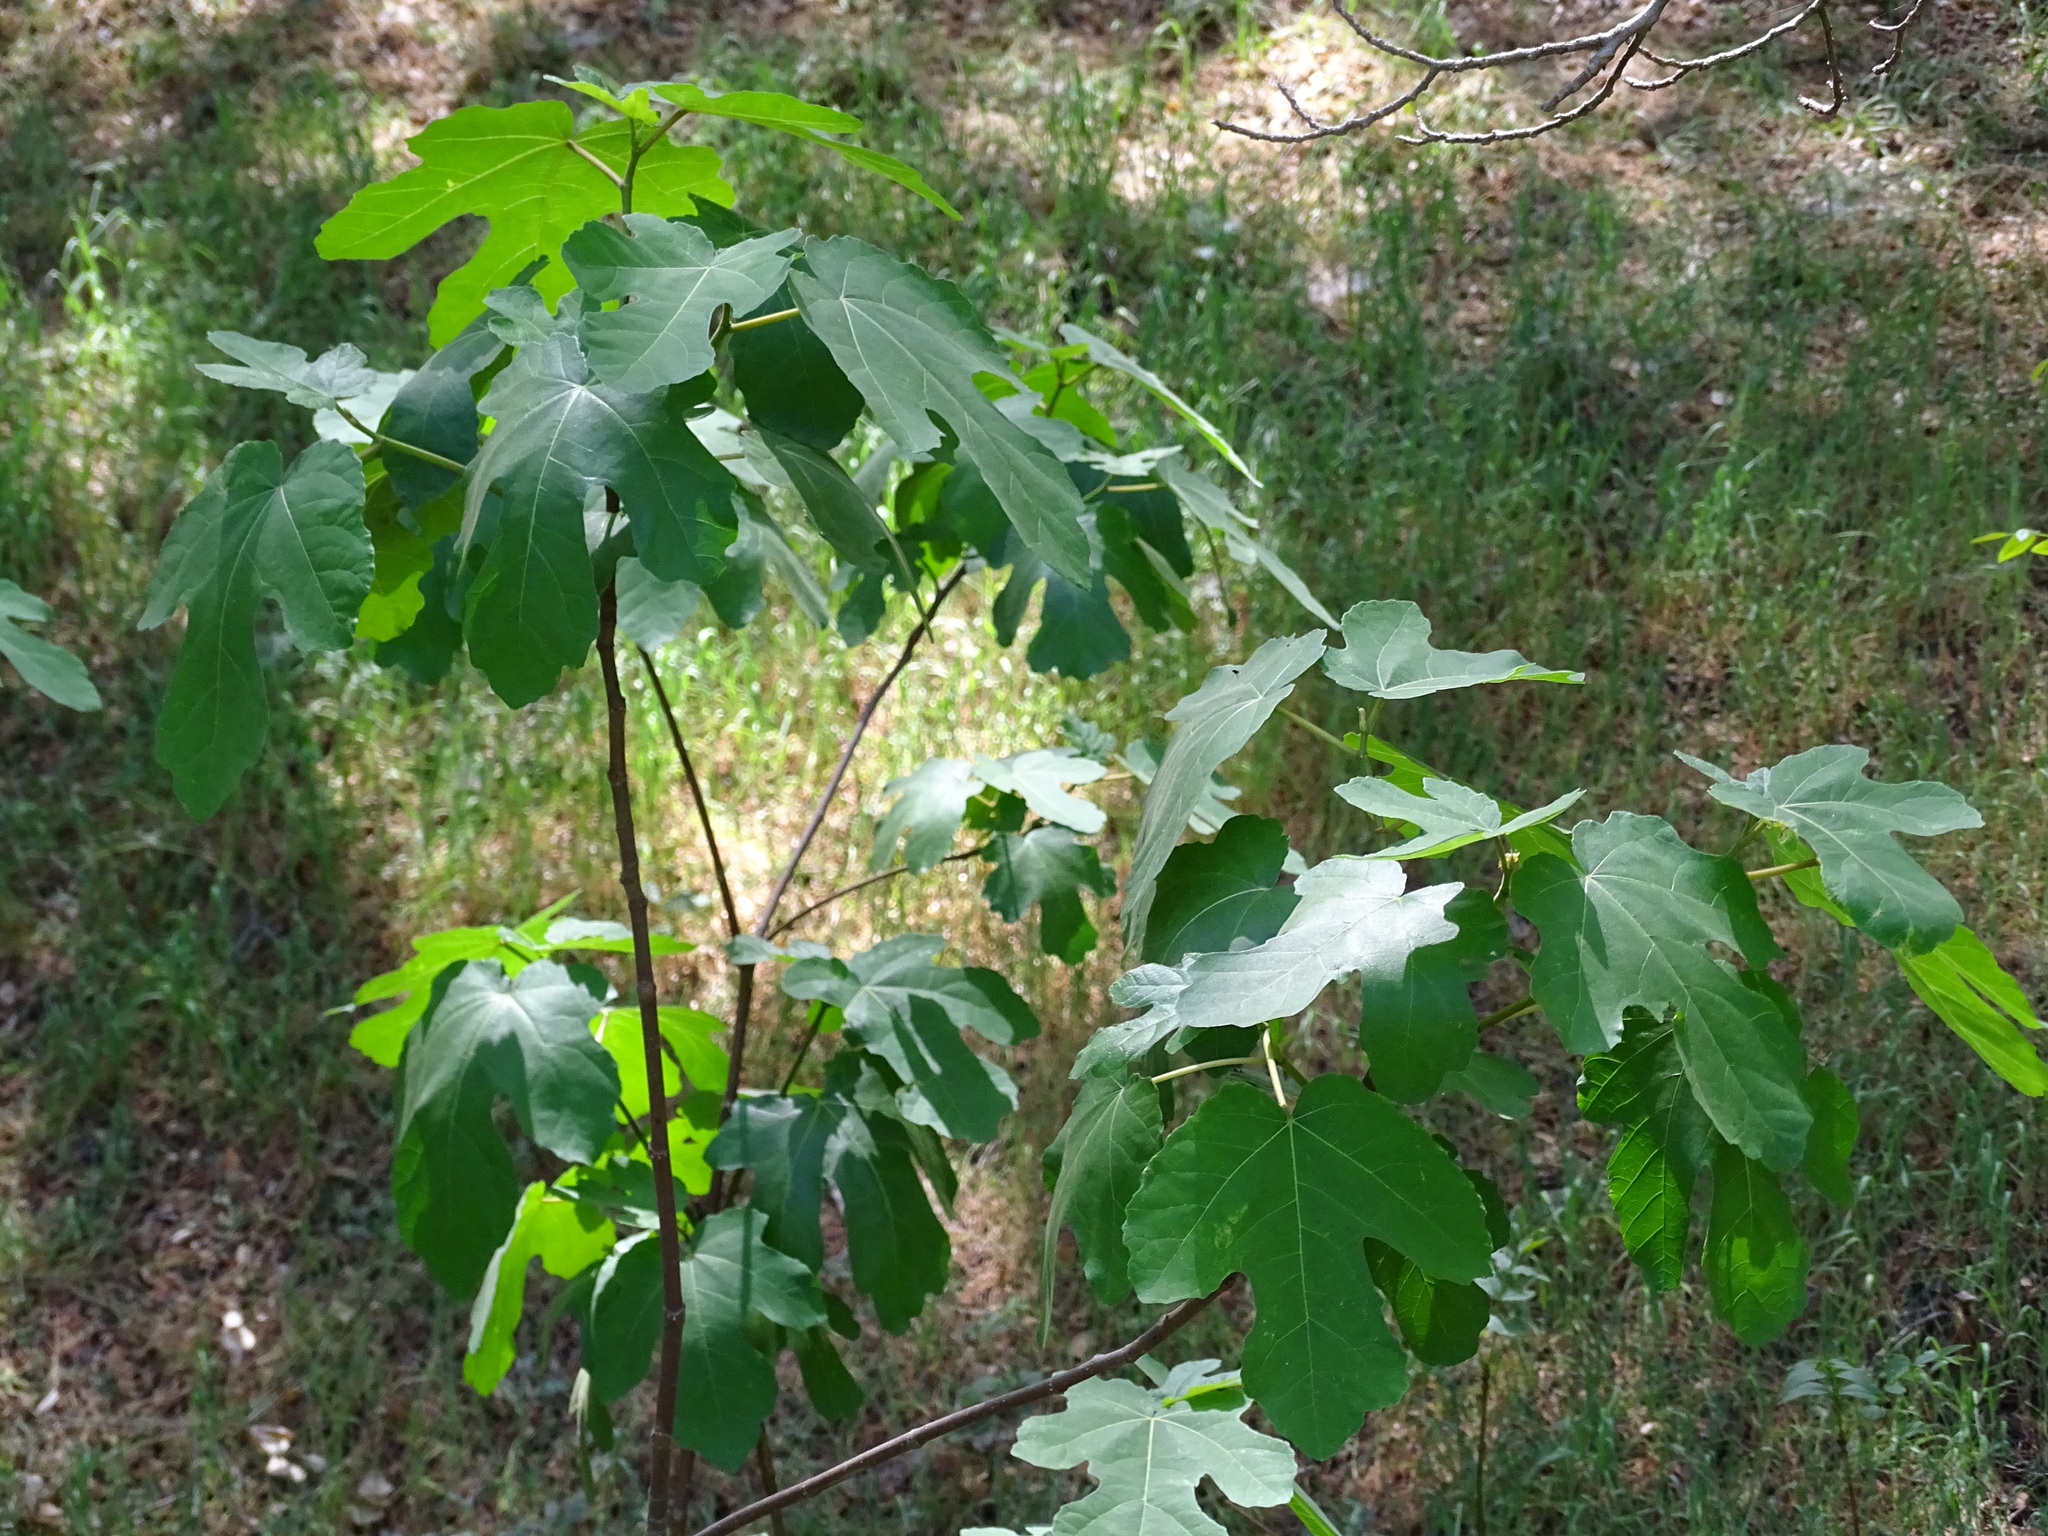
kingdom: Plantae
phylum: Tracheophyta
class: Magnoliopsida
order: Rosales
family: Moraceae
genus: Ficus
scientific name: Ficus carica
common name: Fig
